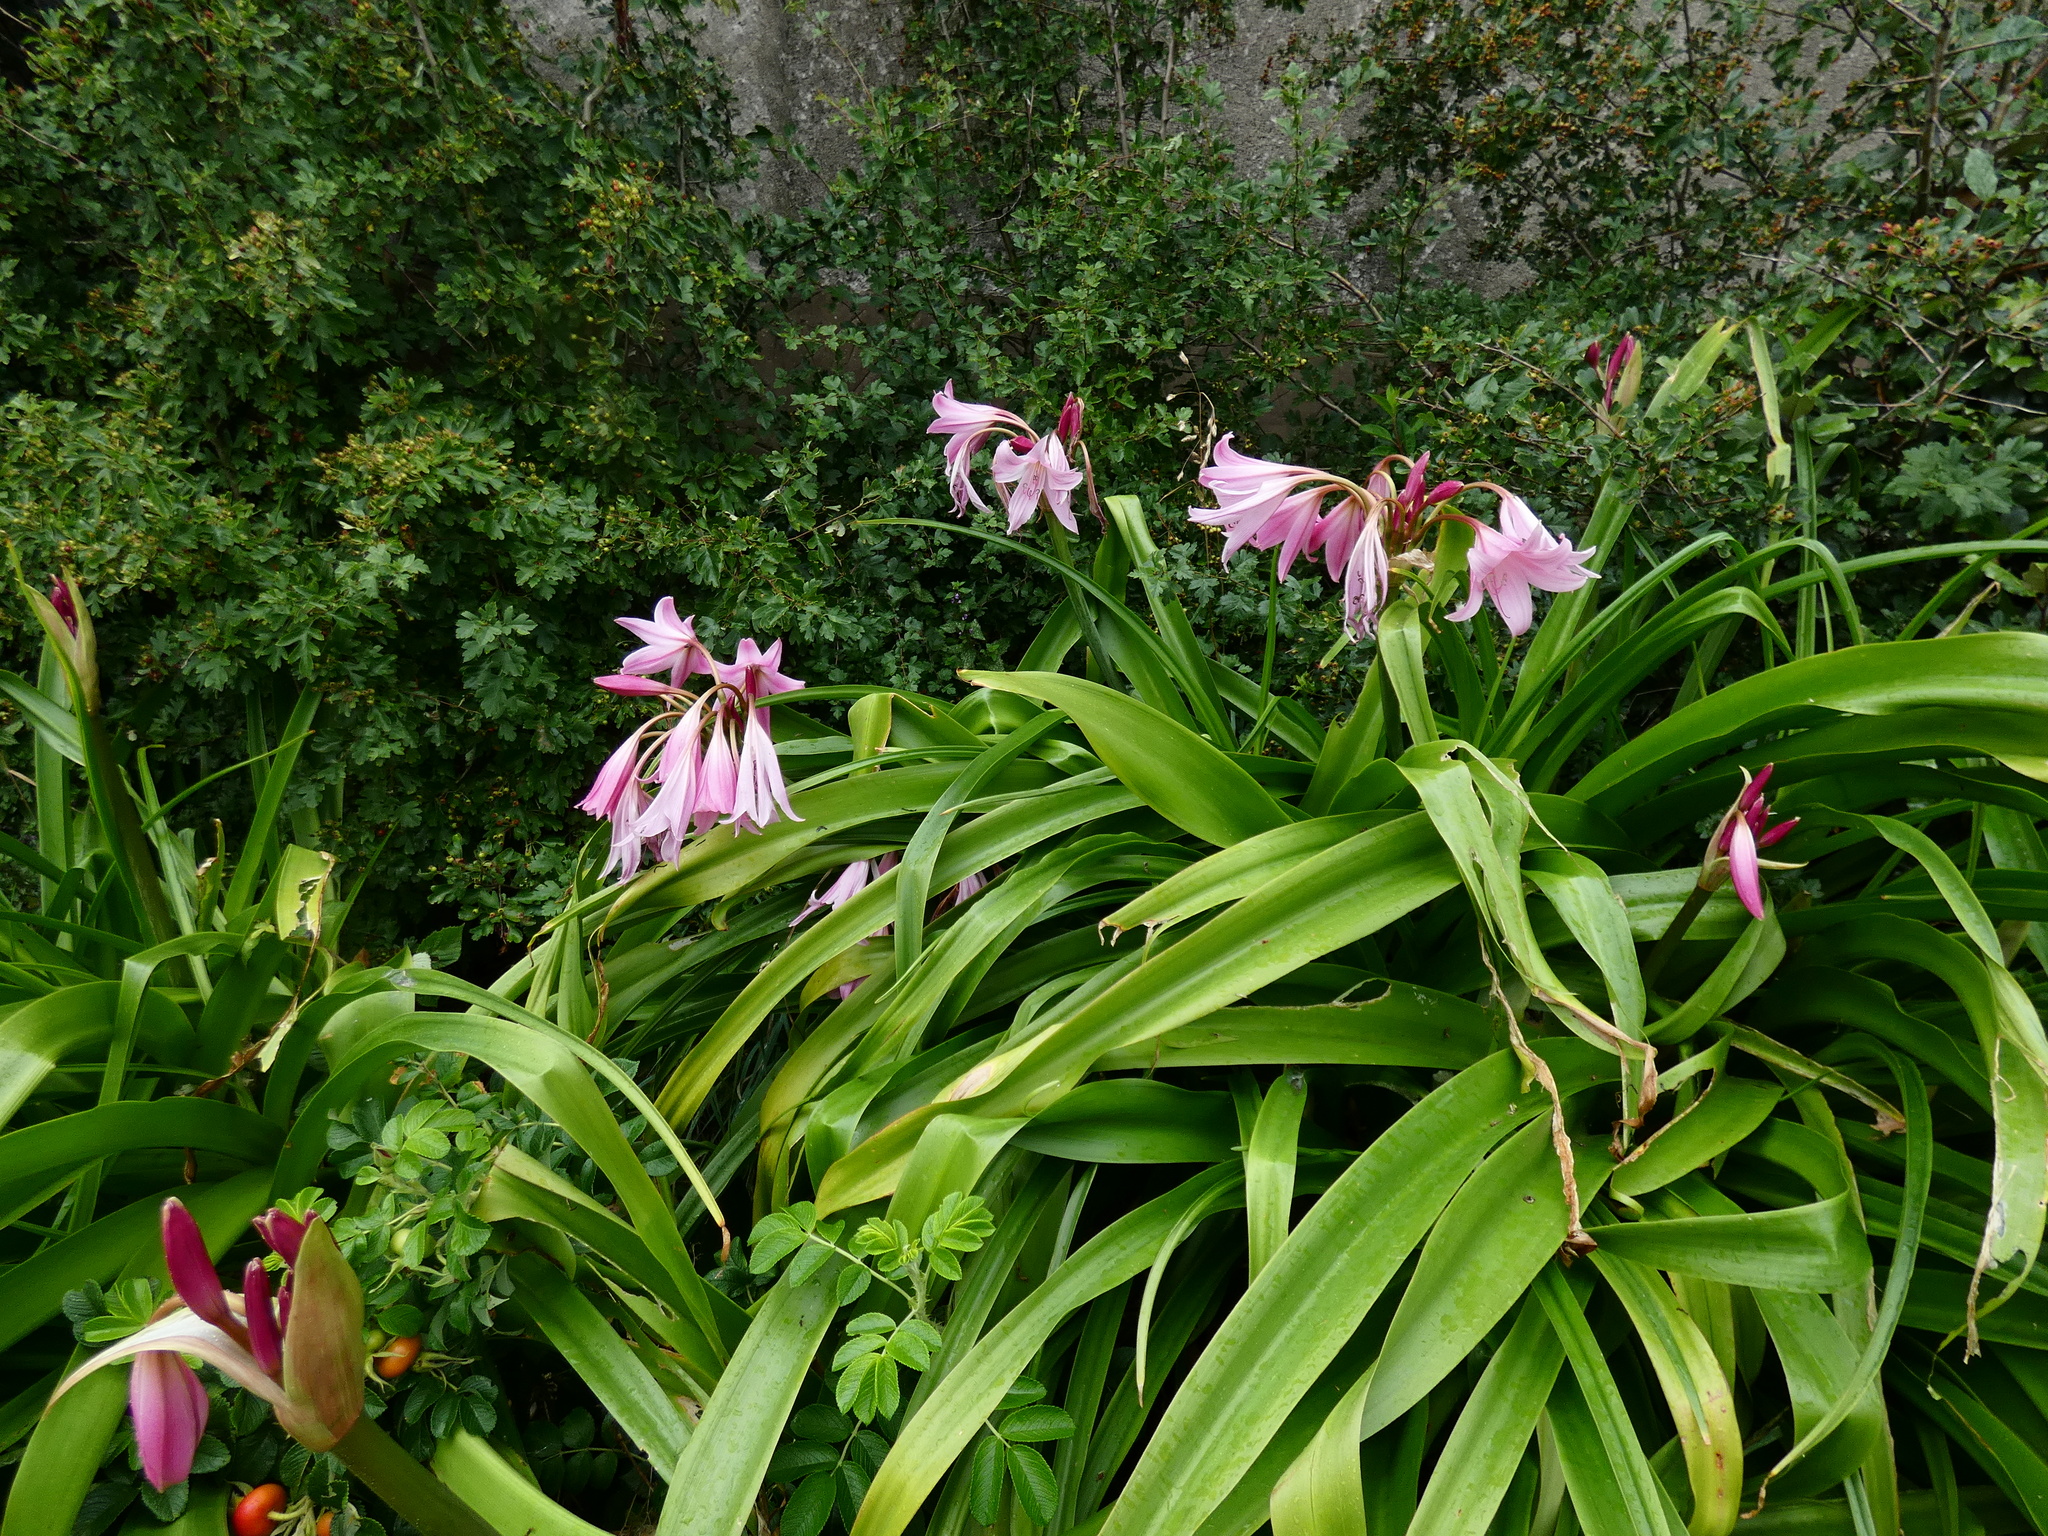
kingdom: Plantae
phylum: Tracheophyta
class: Liliopsida
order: Asparagales
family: Amaryllidaceae
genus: Crinum
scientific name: Crinum powellii
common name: Powell's cape-lily
